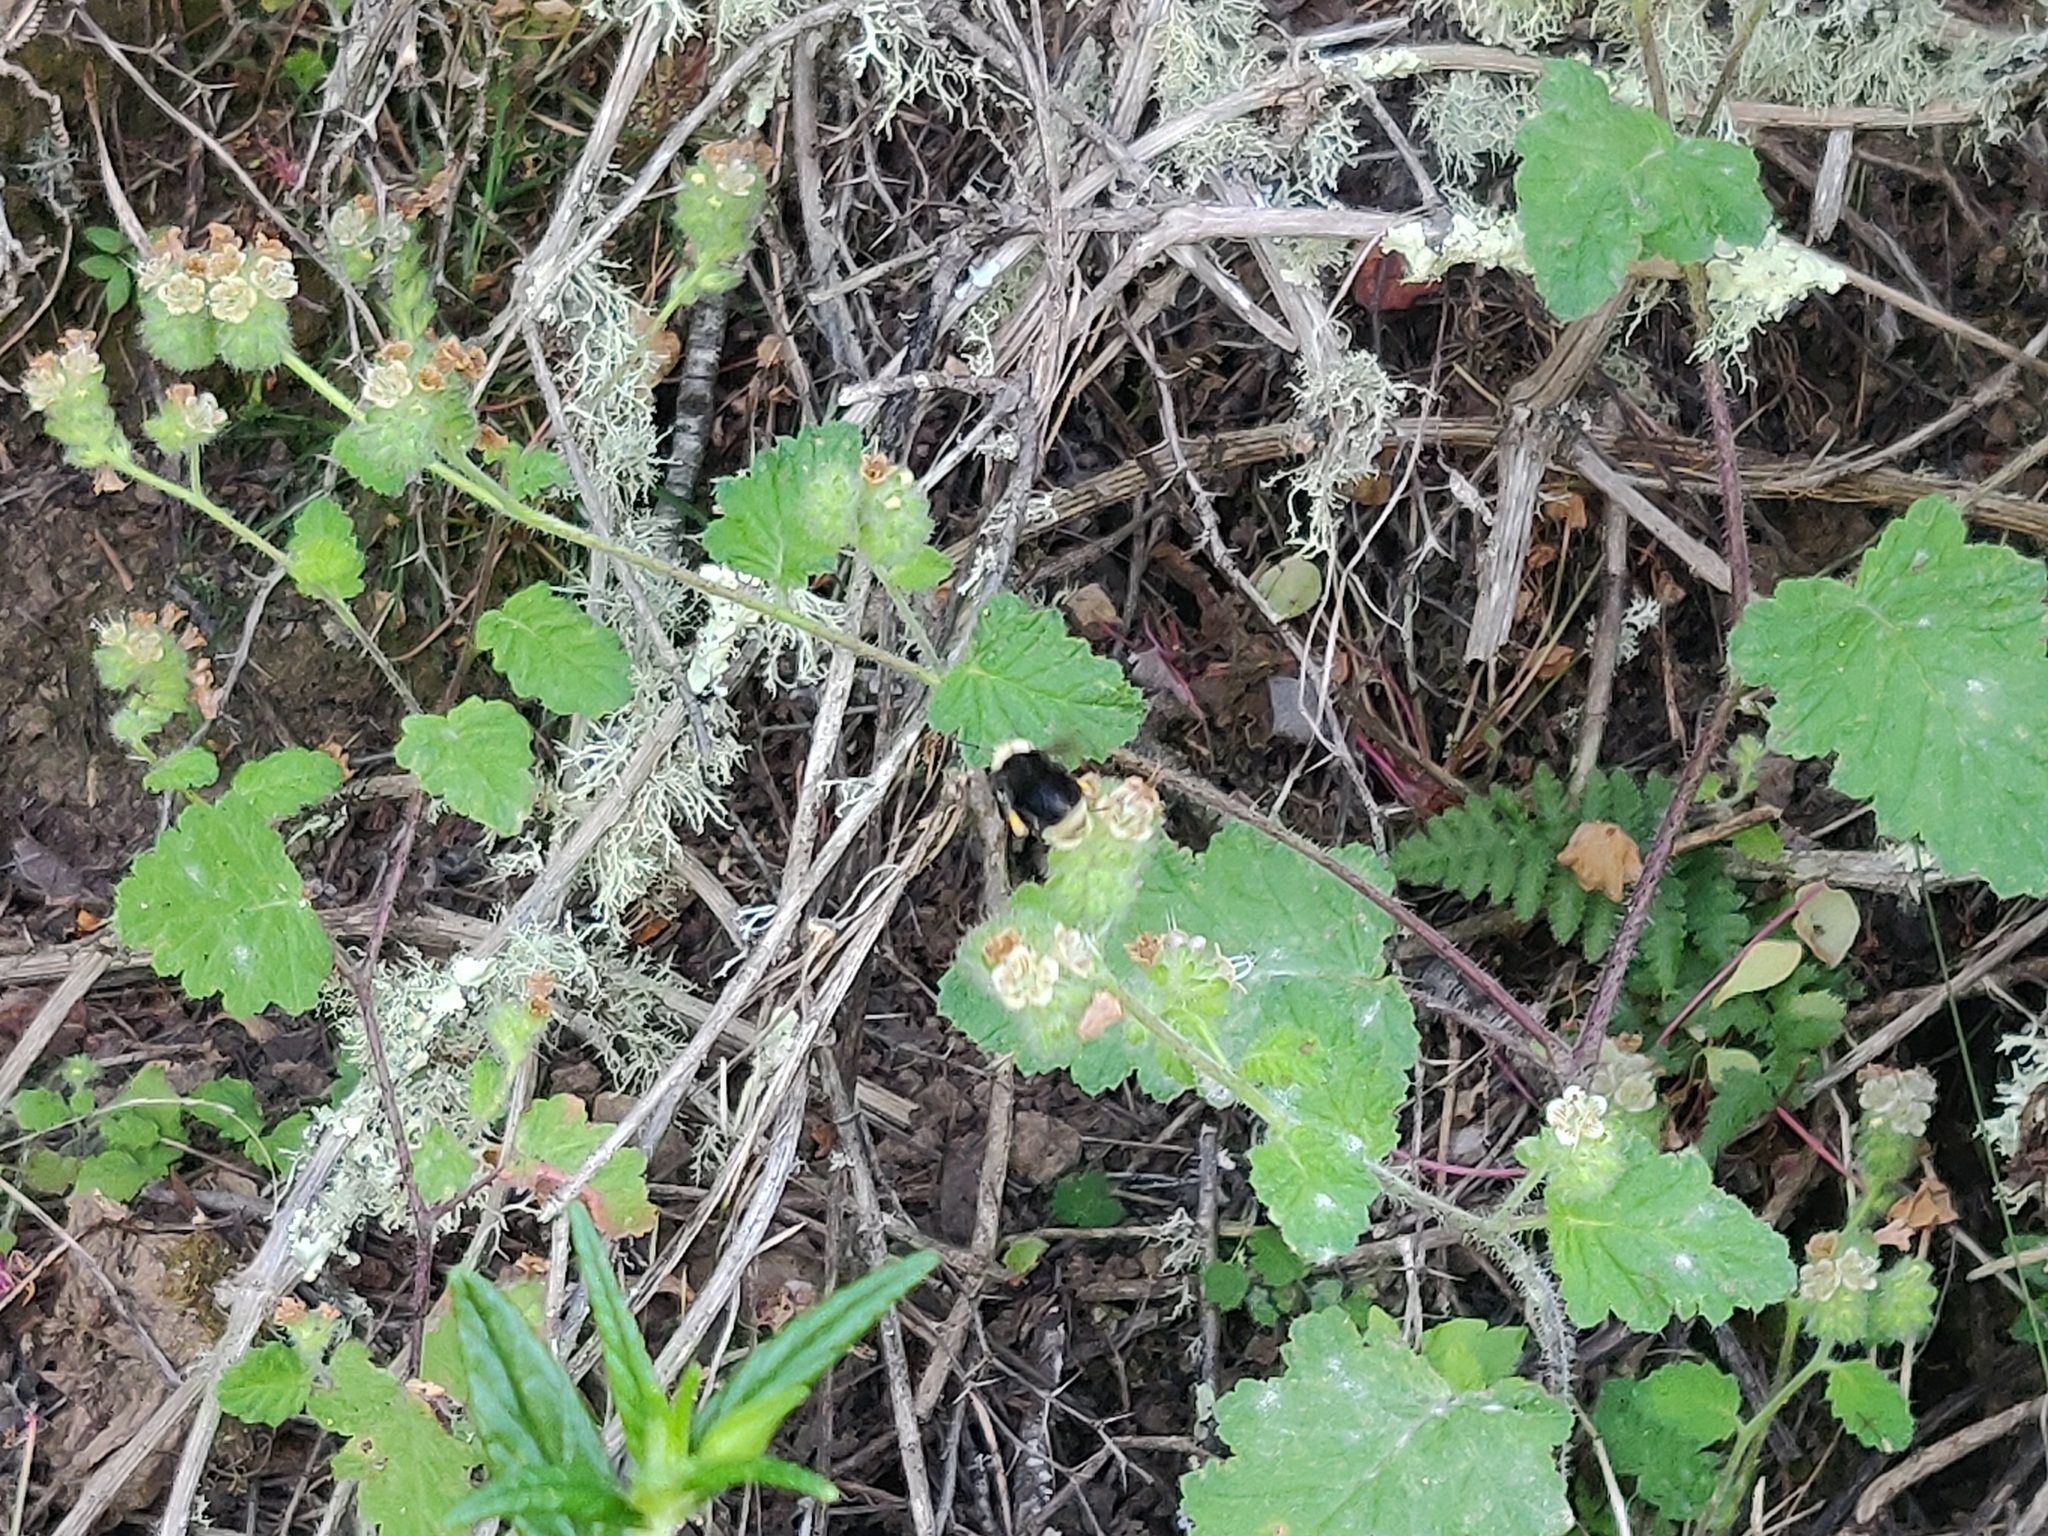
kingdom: Plantae
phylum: Tracheophyta
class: Magnoliopsida
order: Boraginales
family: Hydrophyllaceae
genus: Phacelia
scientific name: Phacelia malvifolia
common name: Mallow-leaf phacelia
